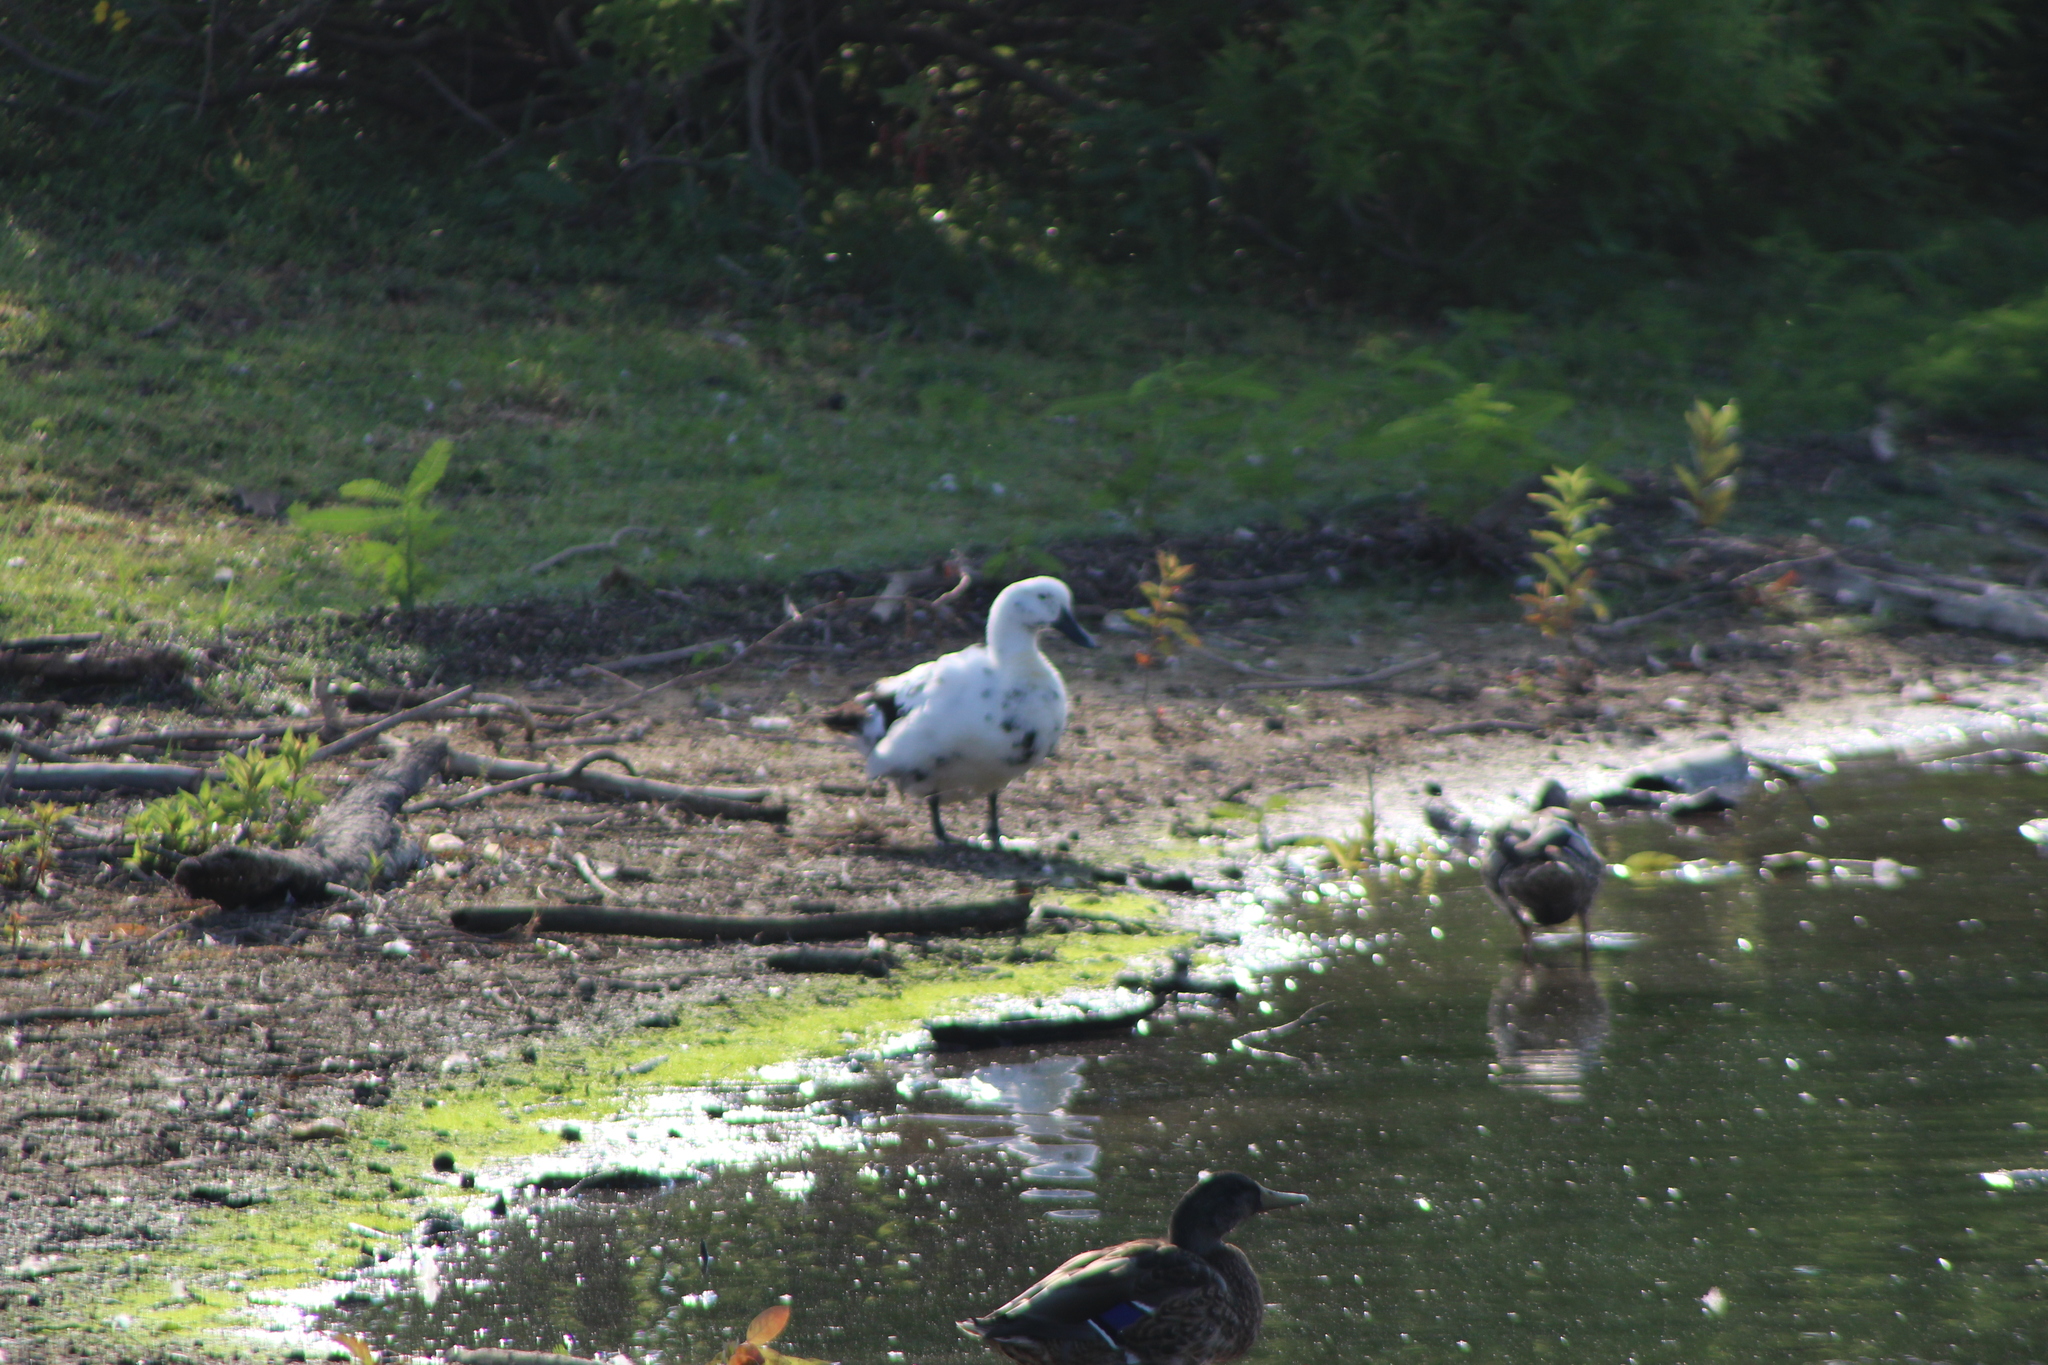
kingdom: Animalia
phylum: Chordata
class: Aves
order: Anseriformes
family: Anatidae
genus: Anas
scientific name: Anas platyrhynchos
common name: Mallard
